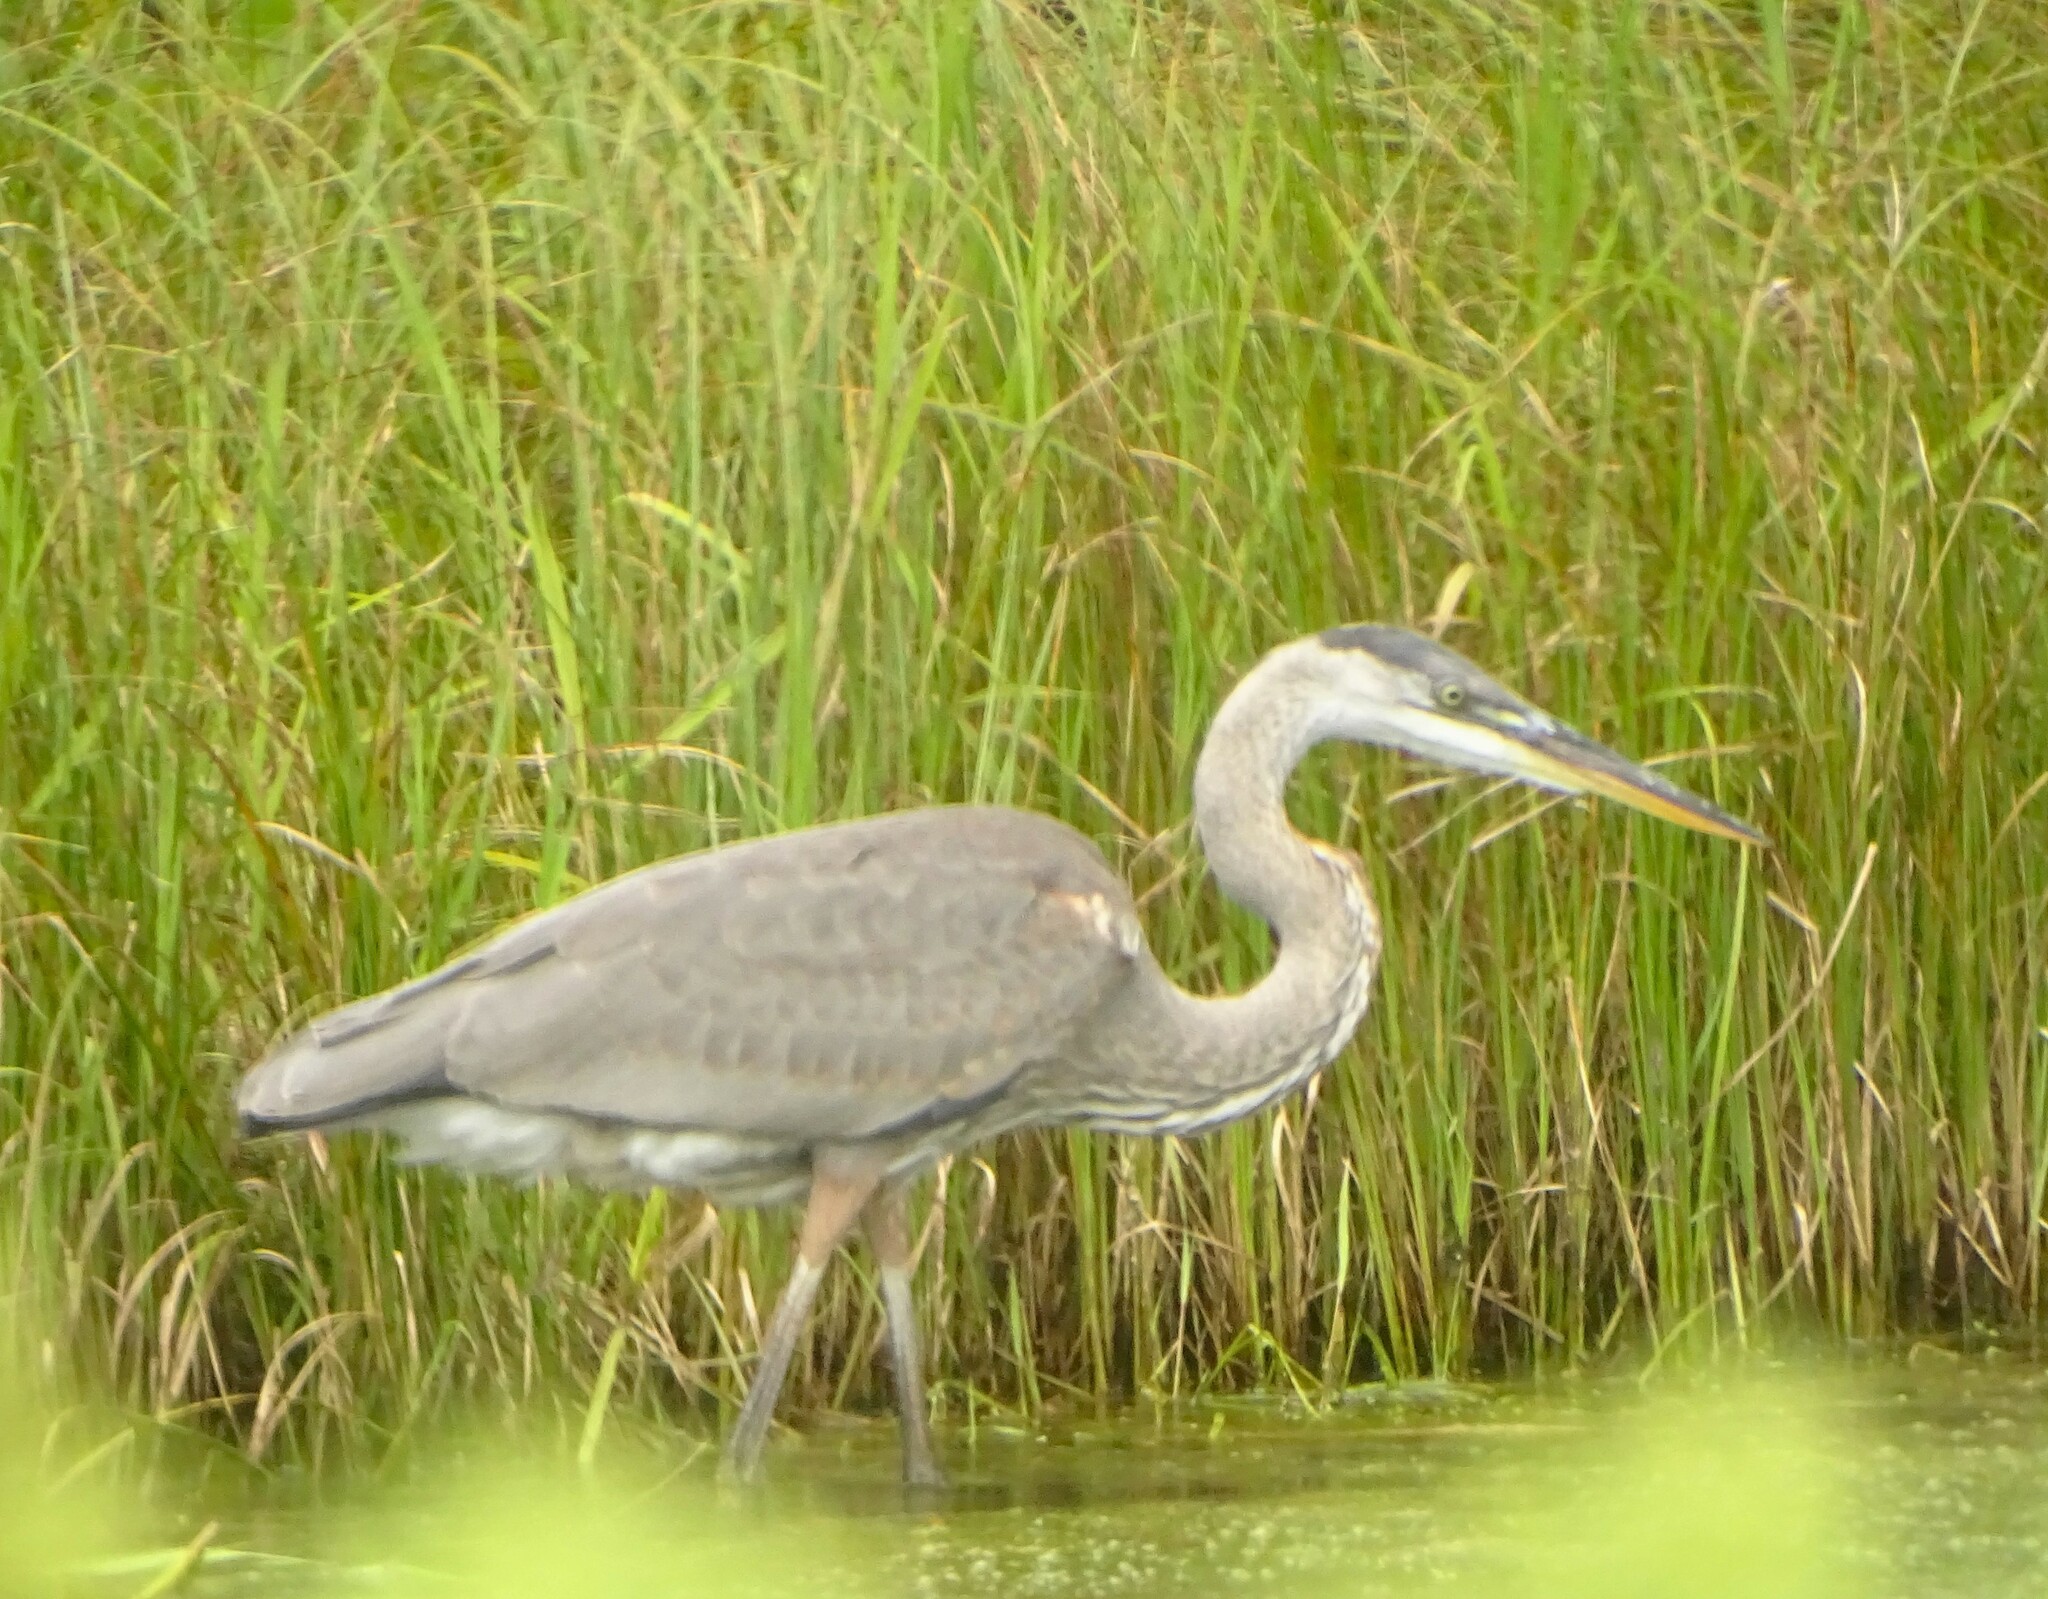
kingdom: Animalia
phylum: Chordata
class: Aves
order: Pelecaniformes
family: Ardeidae
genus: Ardea
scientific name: Ardea herodias
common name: Great blue heron
